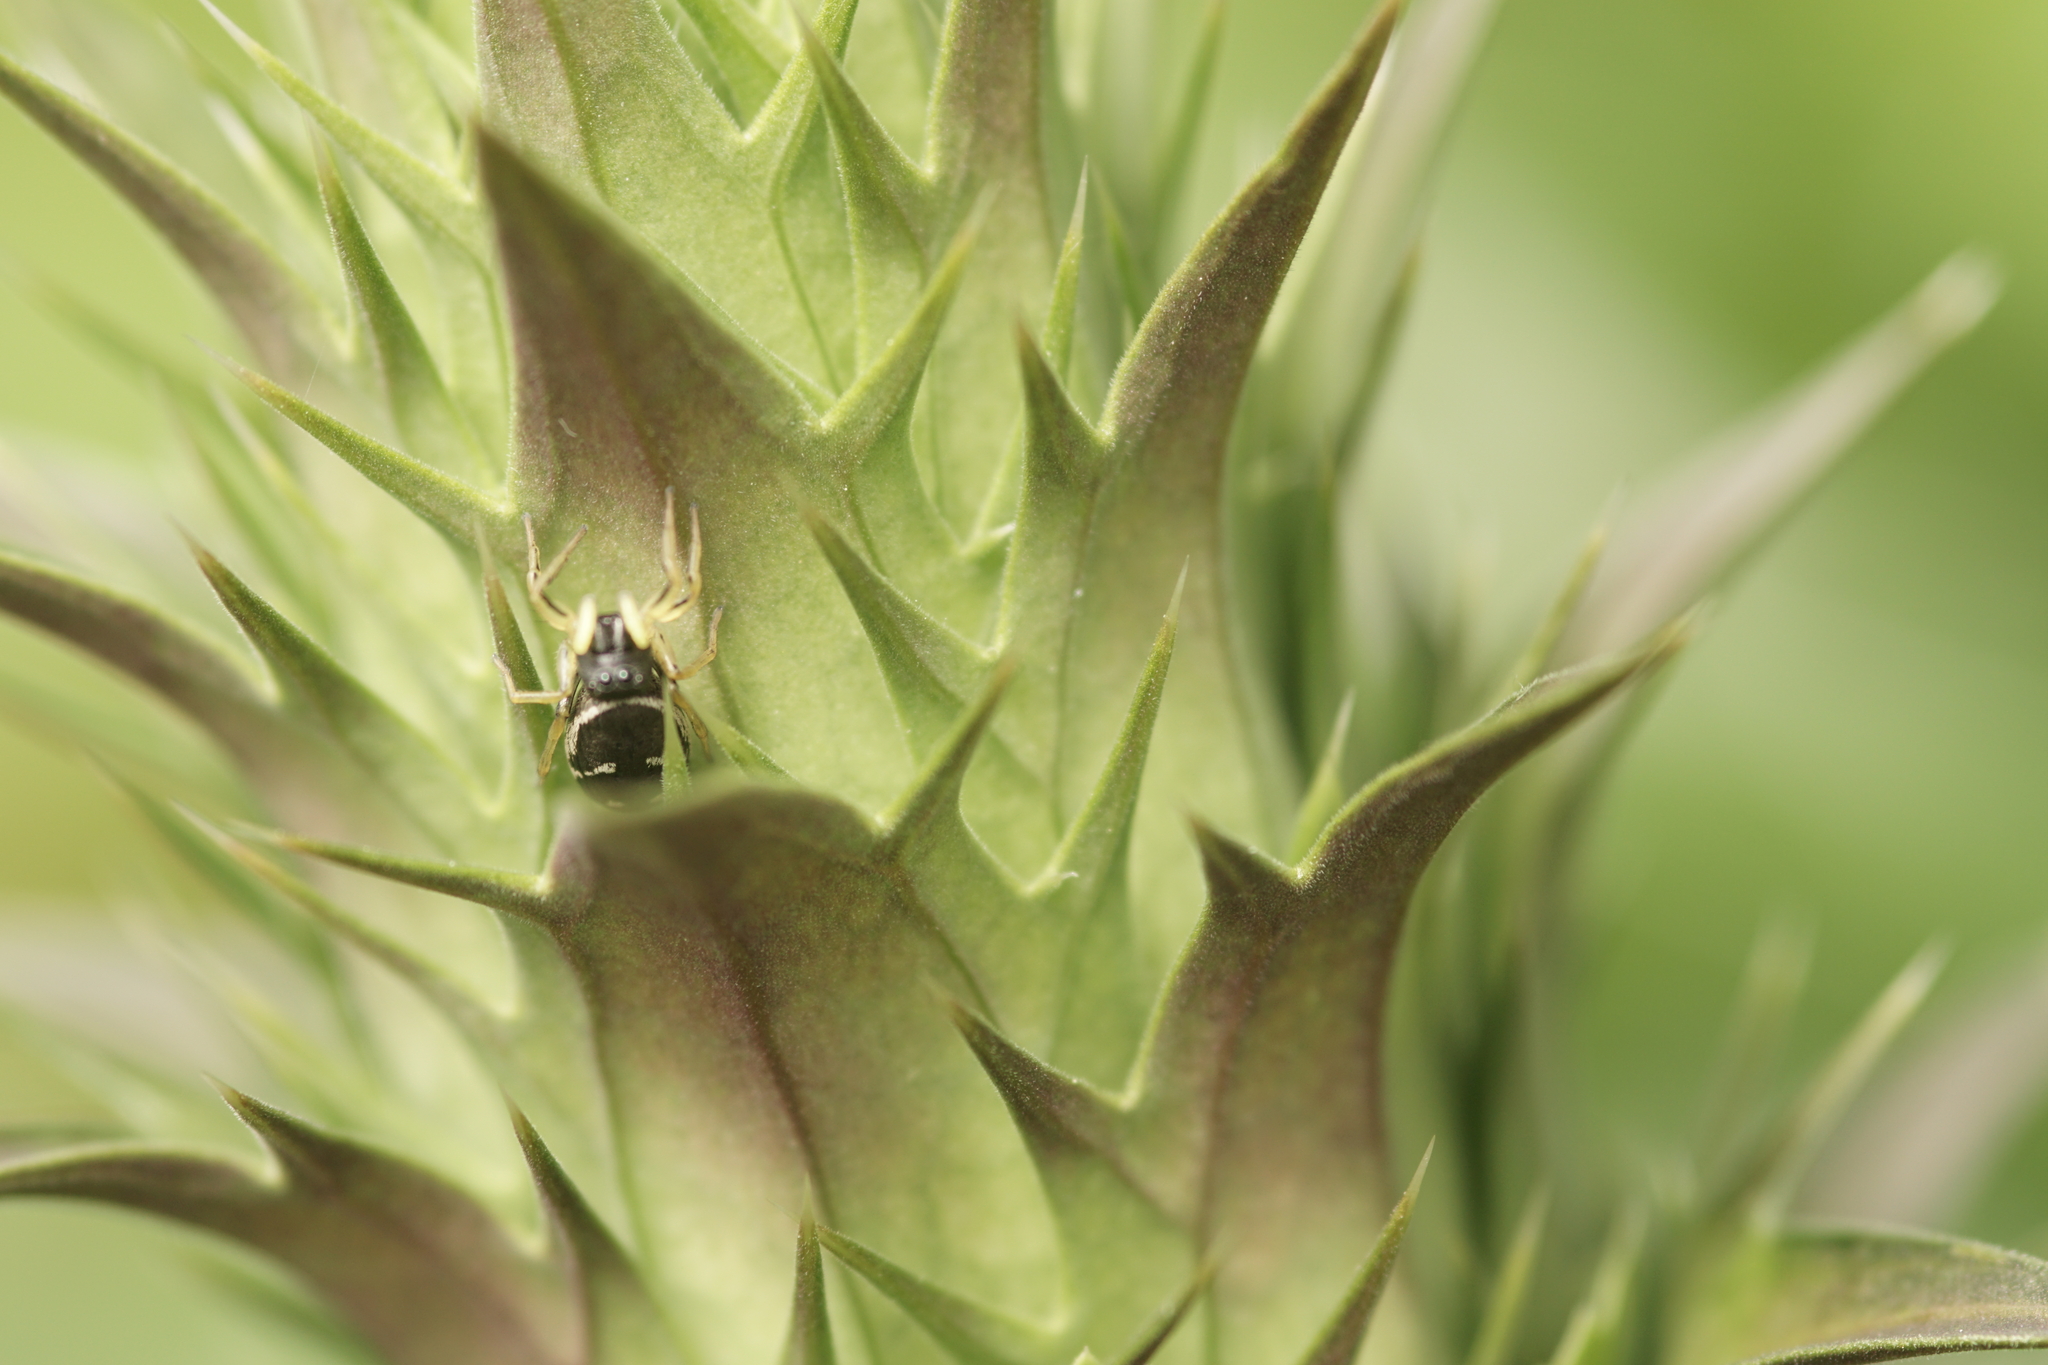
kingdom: Animalia
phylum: Arthropoda
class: Arachnida
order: Araneae
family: Salticidae
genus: Heliophanus
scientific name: Heliophanus cupreus
